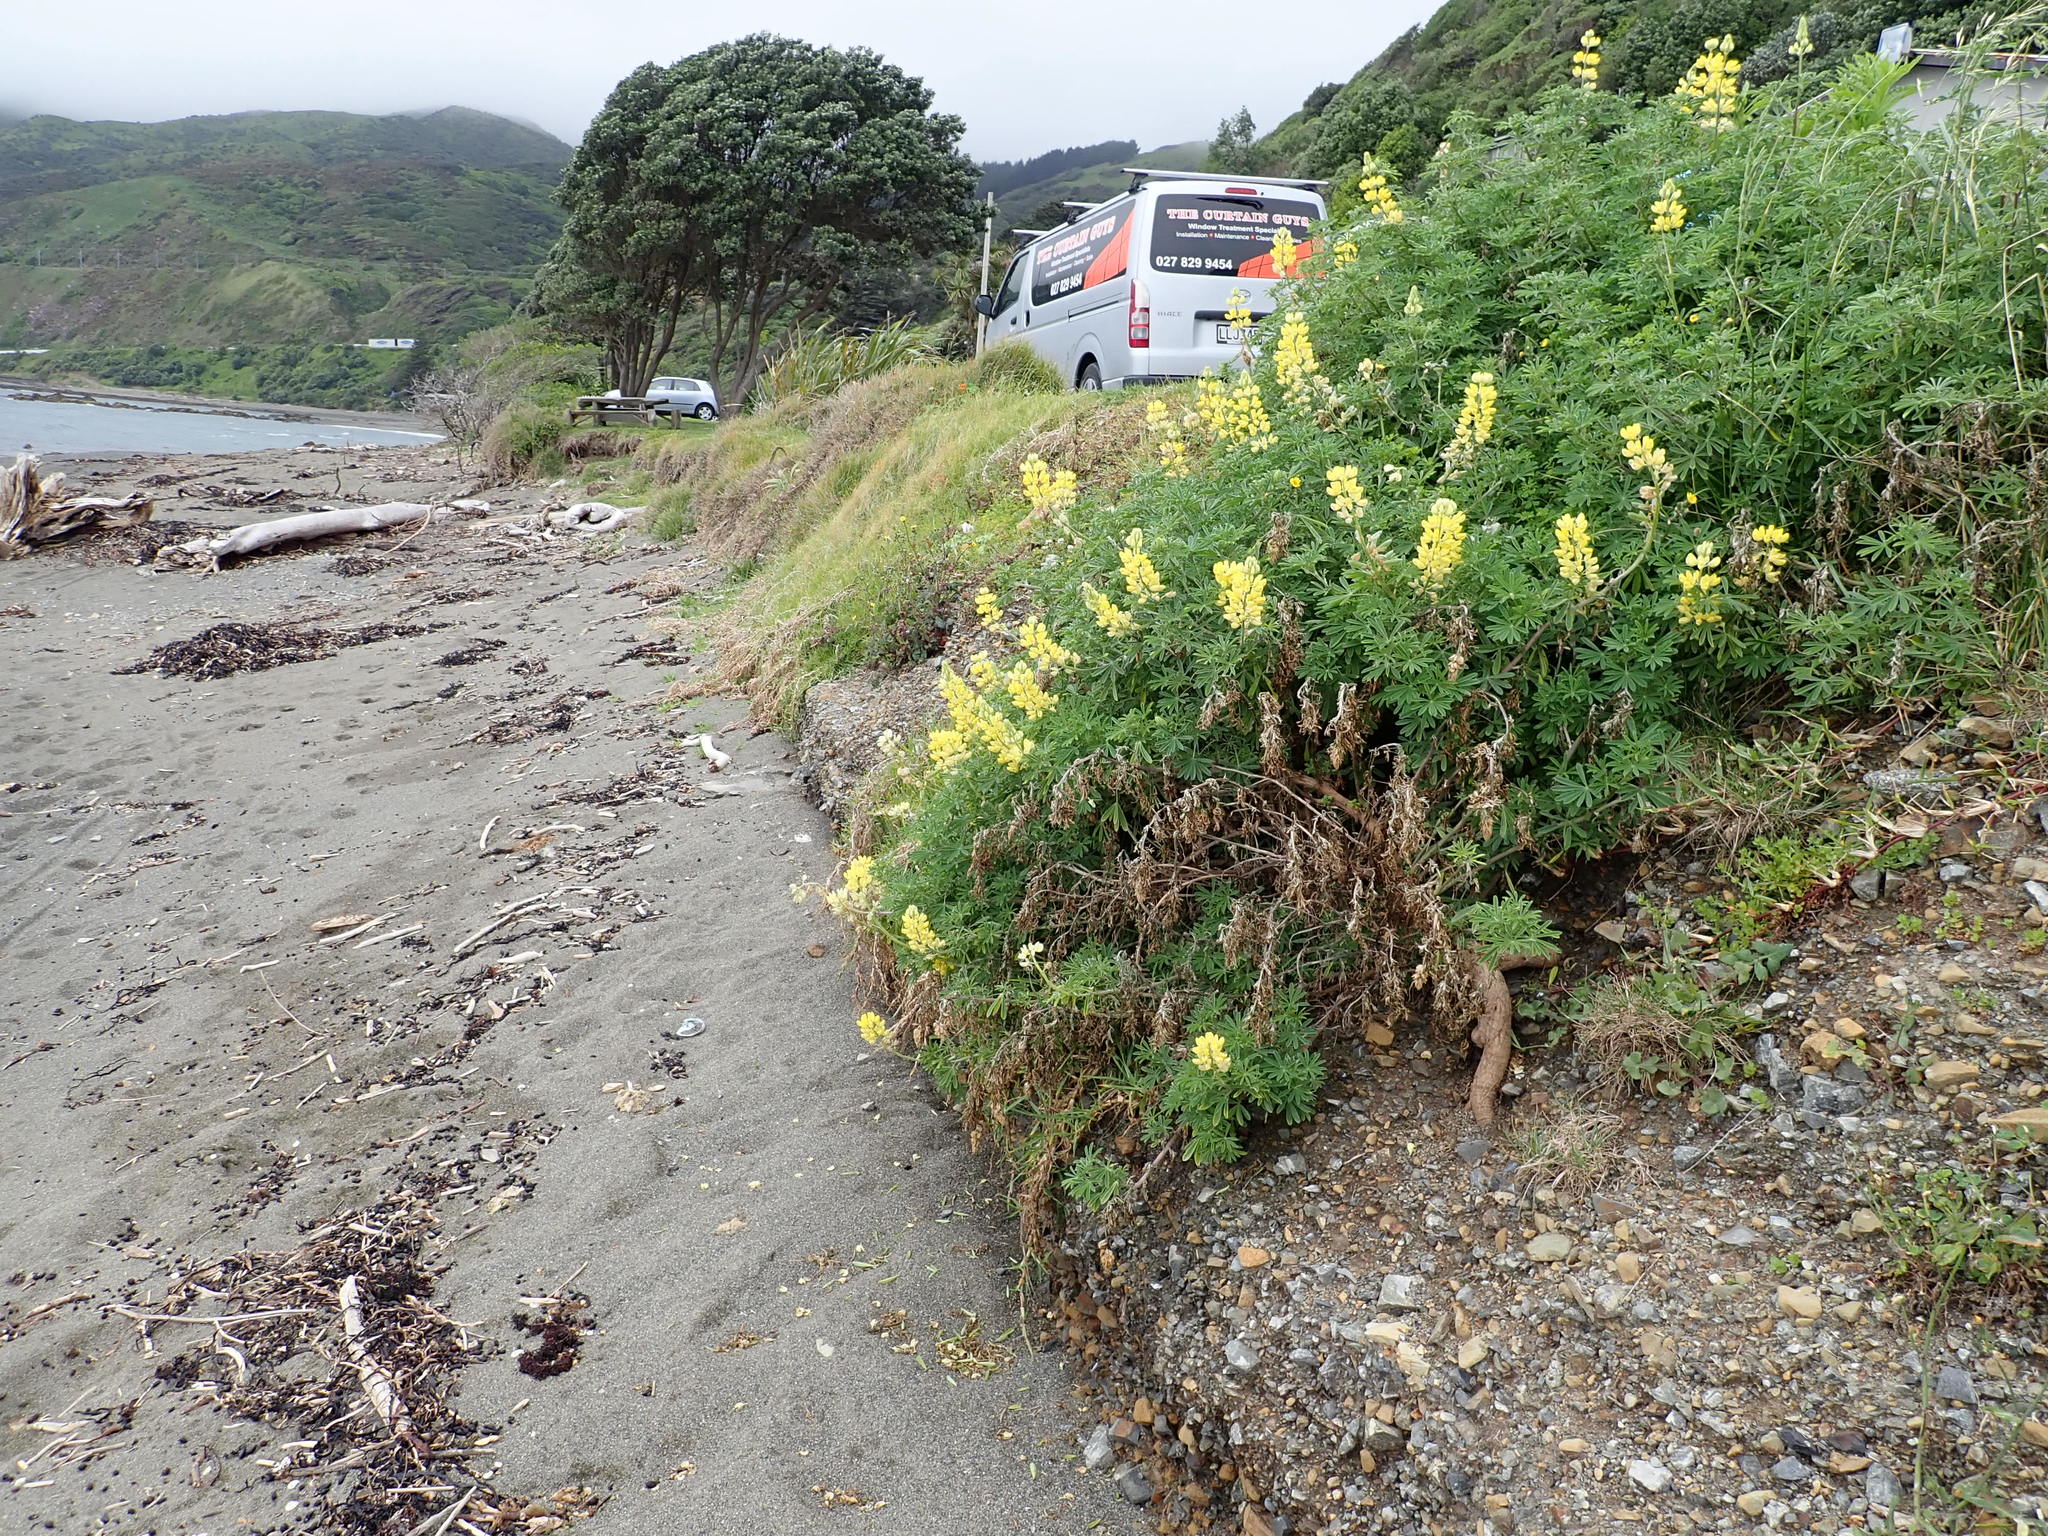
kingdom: Plantae
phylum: Tracheophyta
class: Magnoliopsida
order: Fabales
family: Fabaceae
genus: Lupinus
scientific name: Lupinus arboreus
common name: Yellow bush lupine
